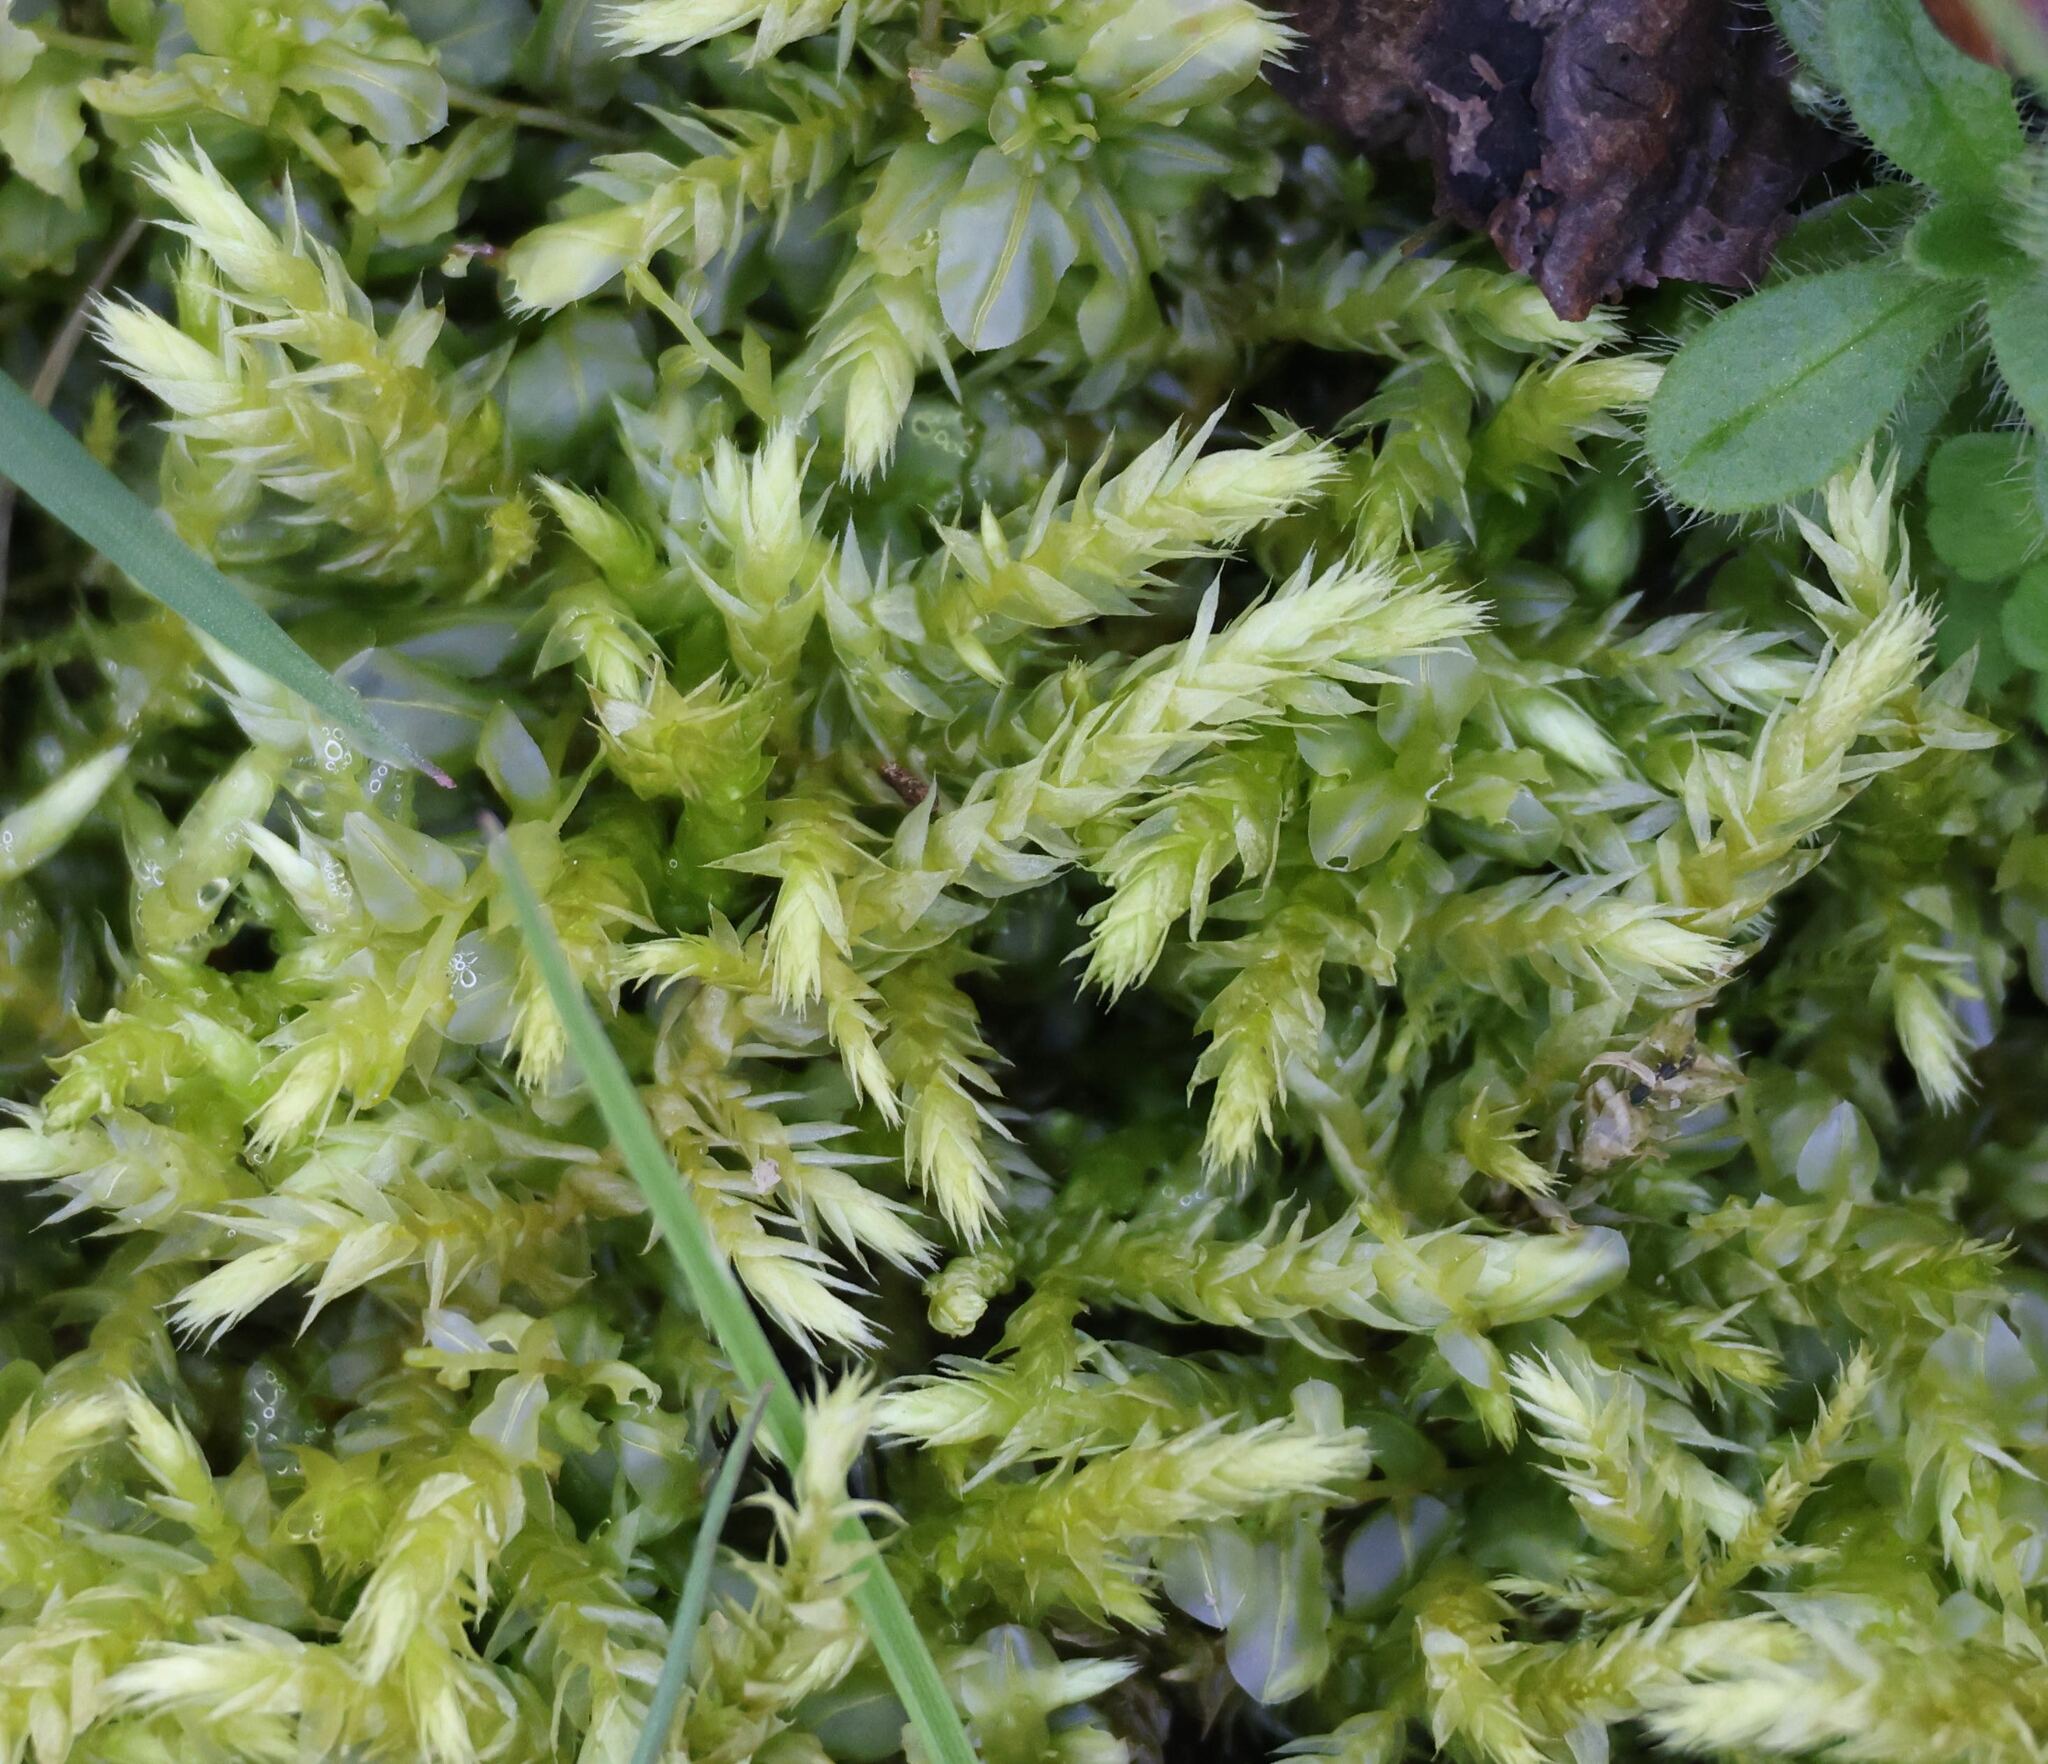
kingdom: Plantae
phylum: Bryophyta
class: Bryopsida
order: Hypnales
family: Brachytheciaceae
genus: Brachythecium
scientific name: Brachythecium rutabulum
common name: Rough-stalked feather-moss
